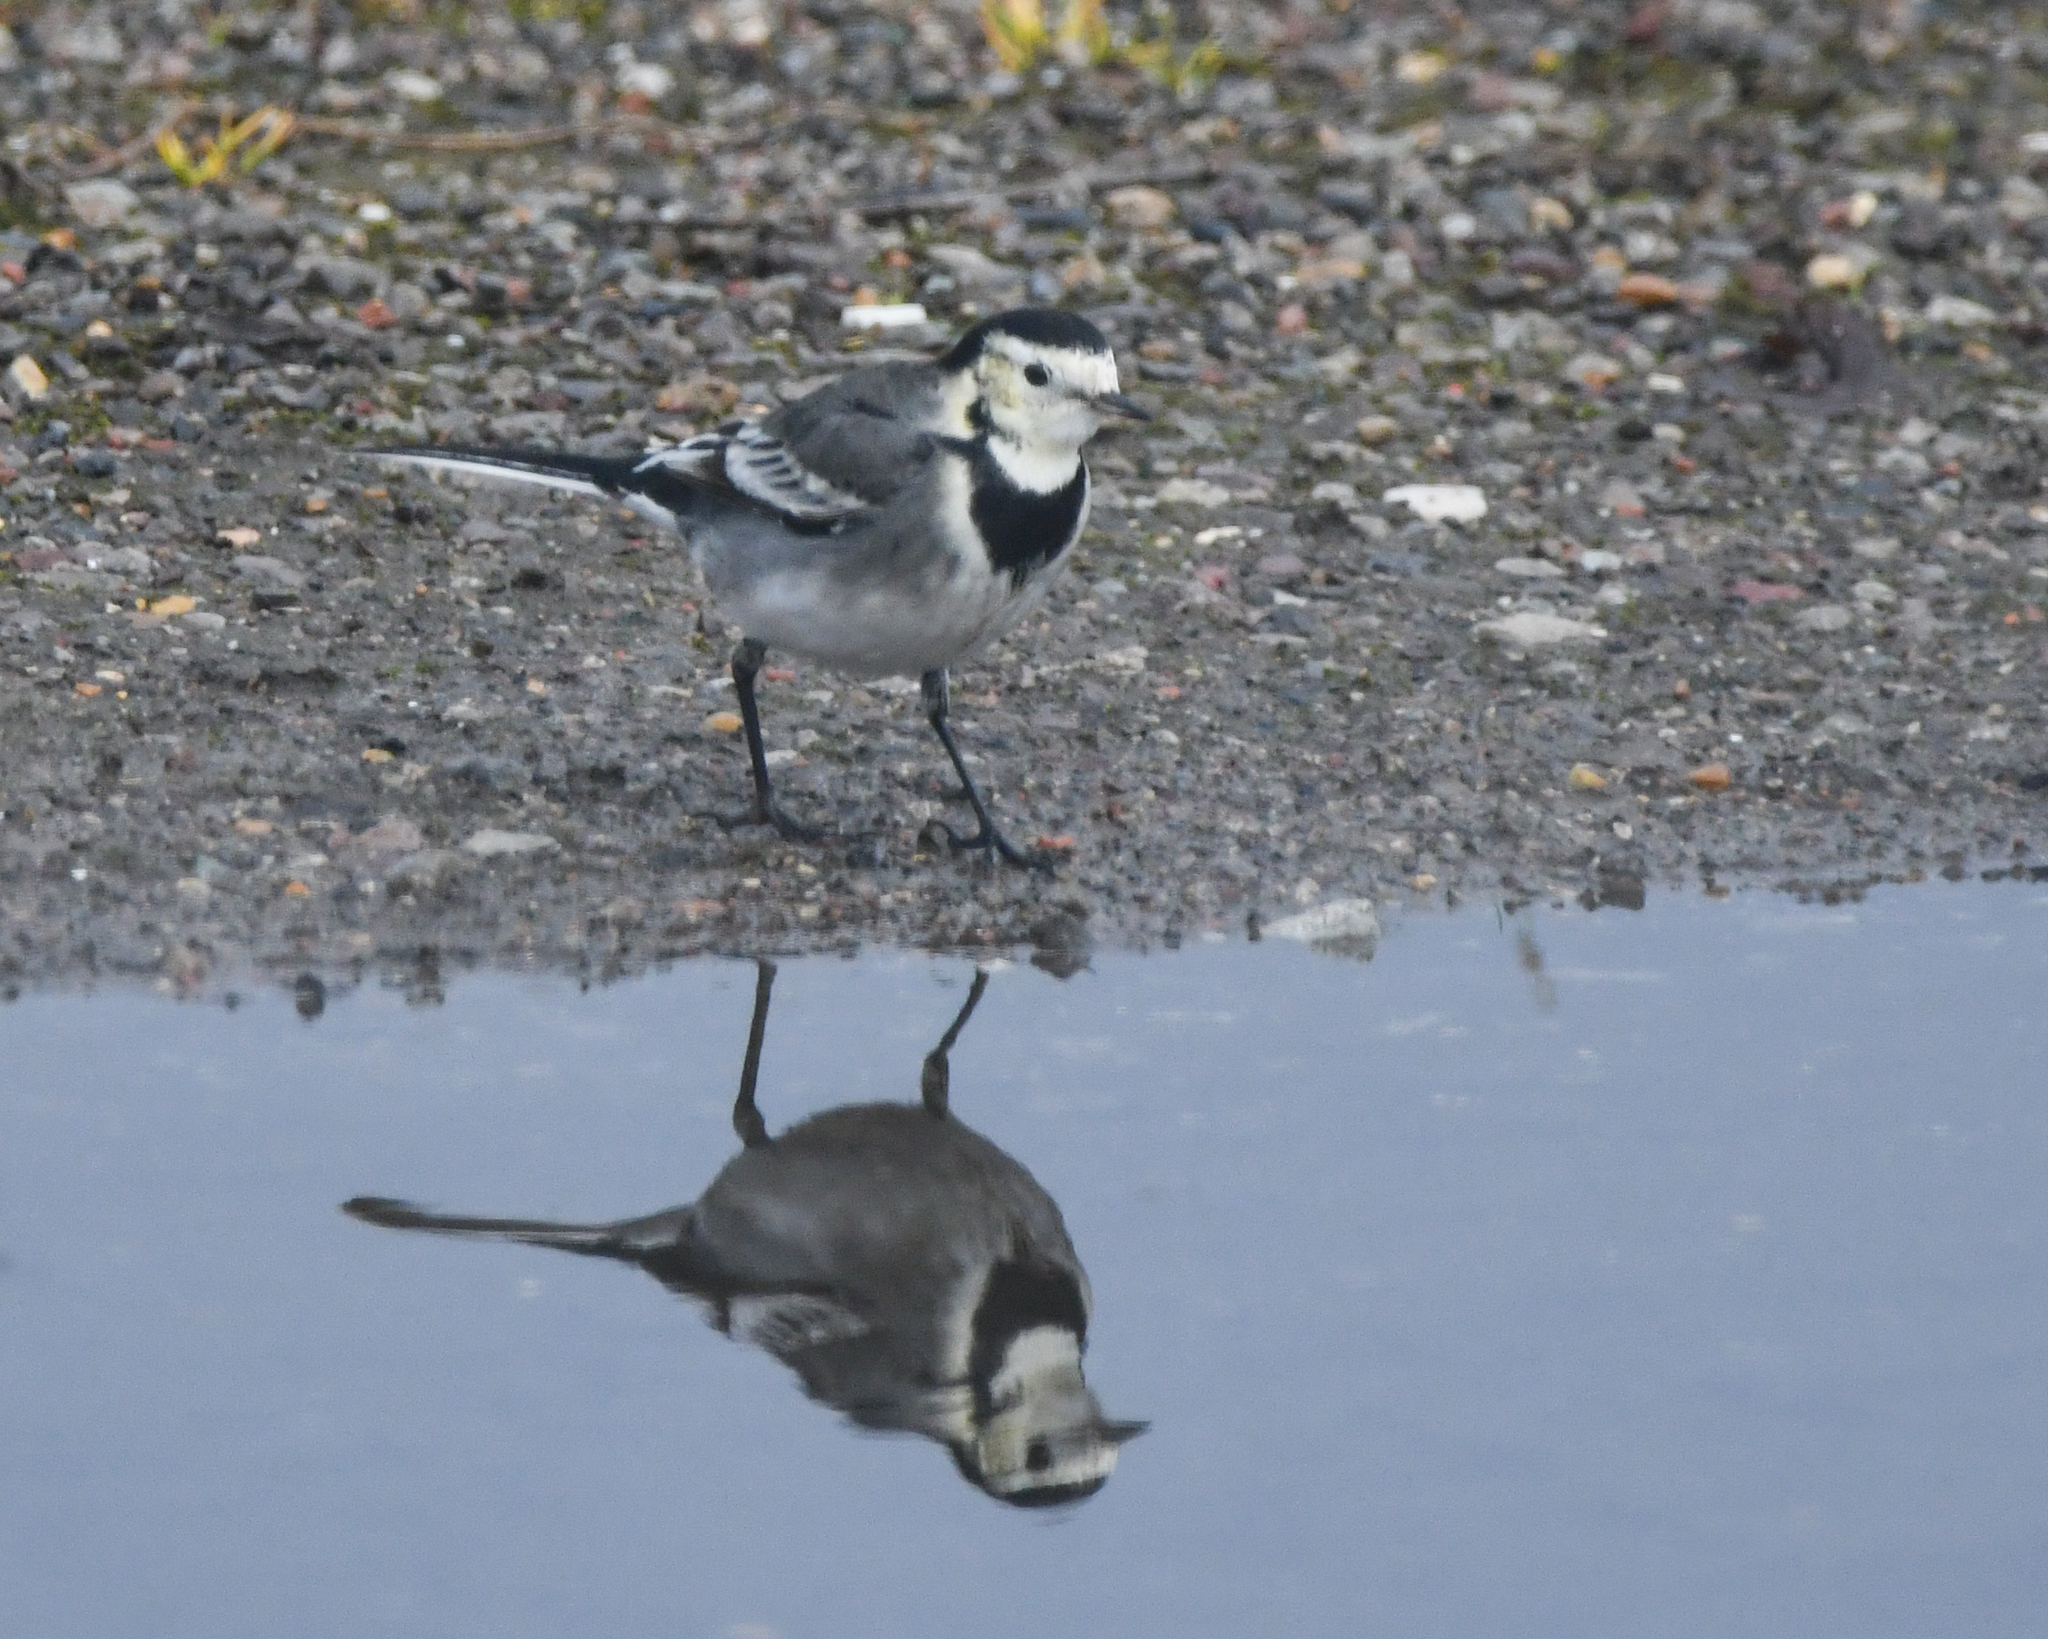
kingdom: Animalia
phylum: Chordata
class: Aves
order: Passeriformes
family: Motacillidae
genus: Motacilla
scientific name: Motacilla alba
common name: White wagtail
